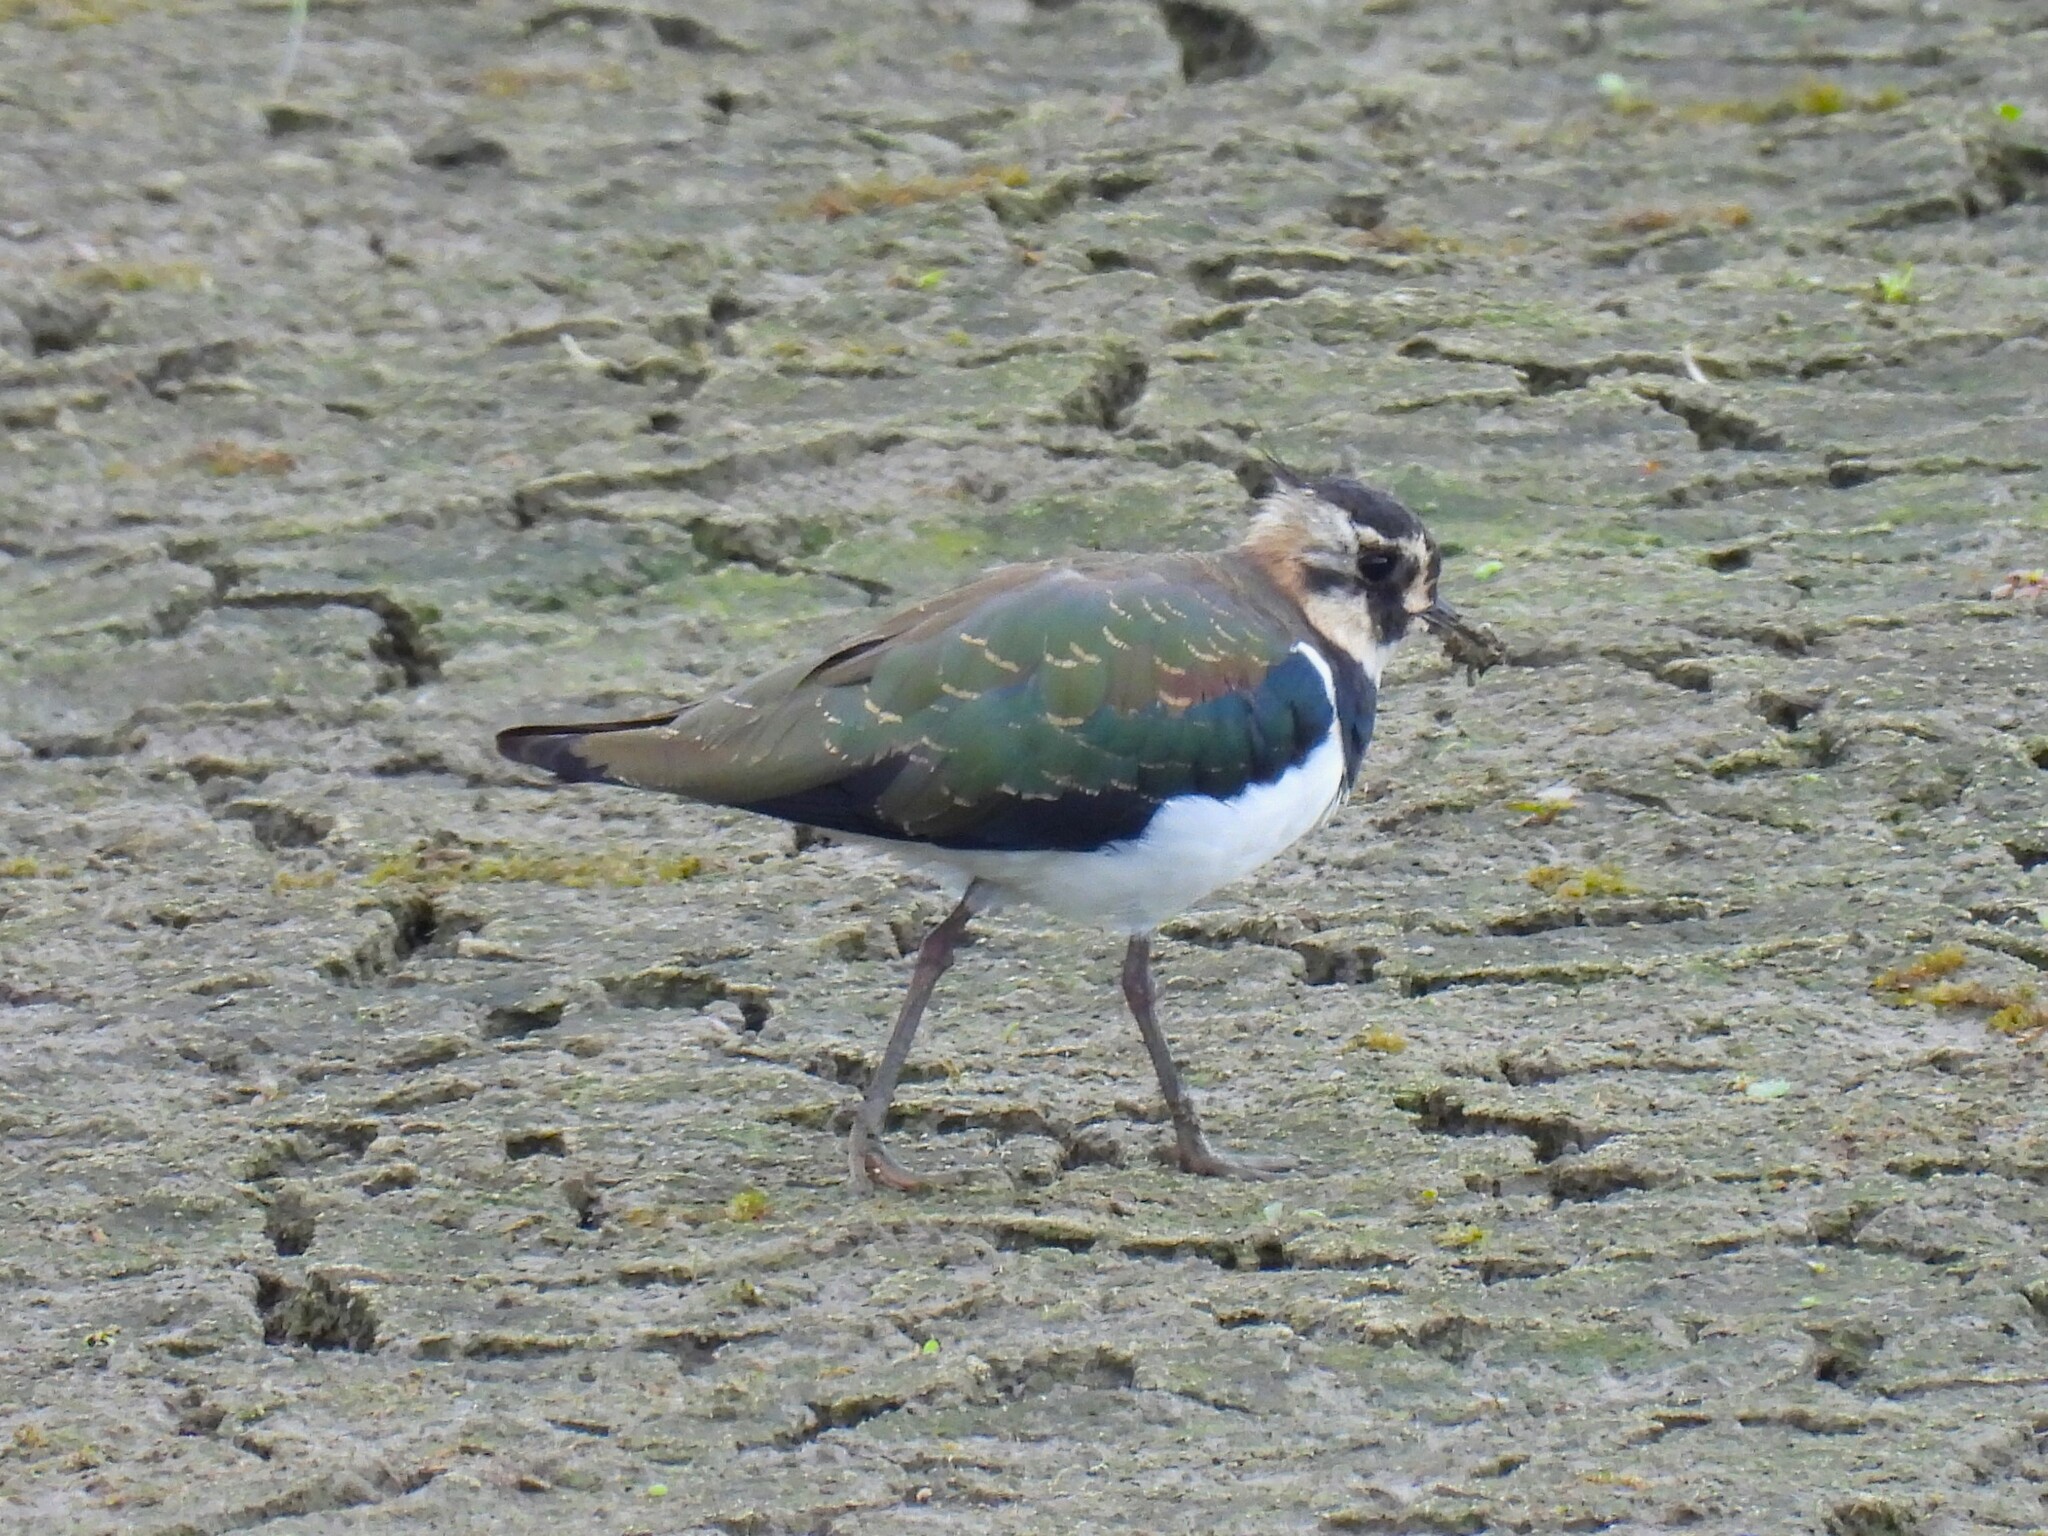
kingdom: Animalia
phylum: Chordata
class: Aves
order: Charadriiformes
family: Charadriidae
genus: Vanellus
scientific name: Vanellus vanellus
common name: Northern lapwing
